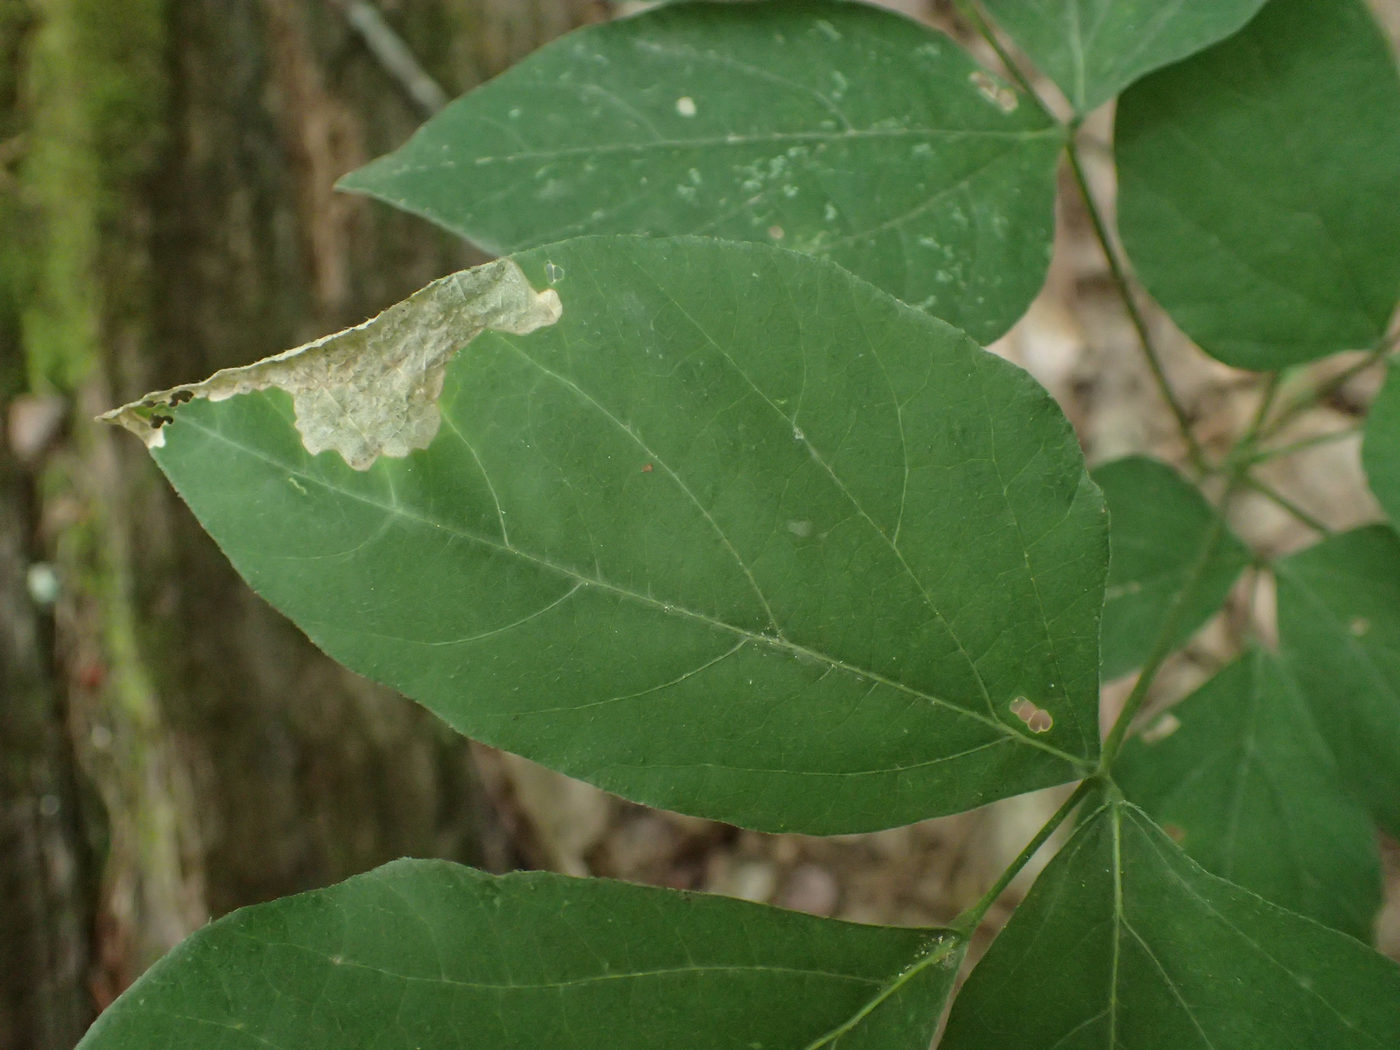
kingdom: Animalia
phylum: Arthropoda
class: Insecta
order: Coleoptera
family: Chrysomelidae
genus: Sumitrosis
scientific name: Sumitrosis rosea
